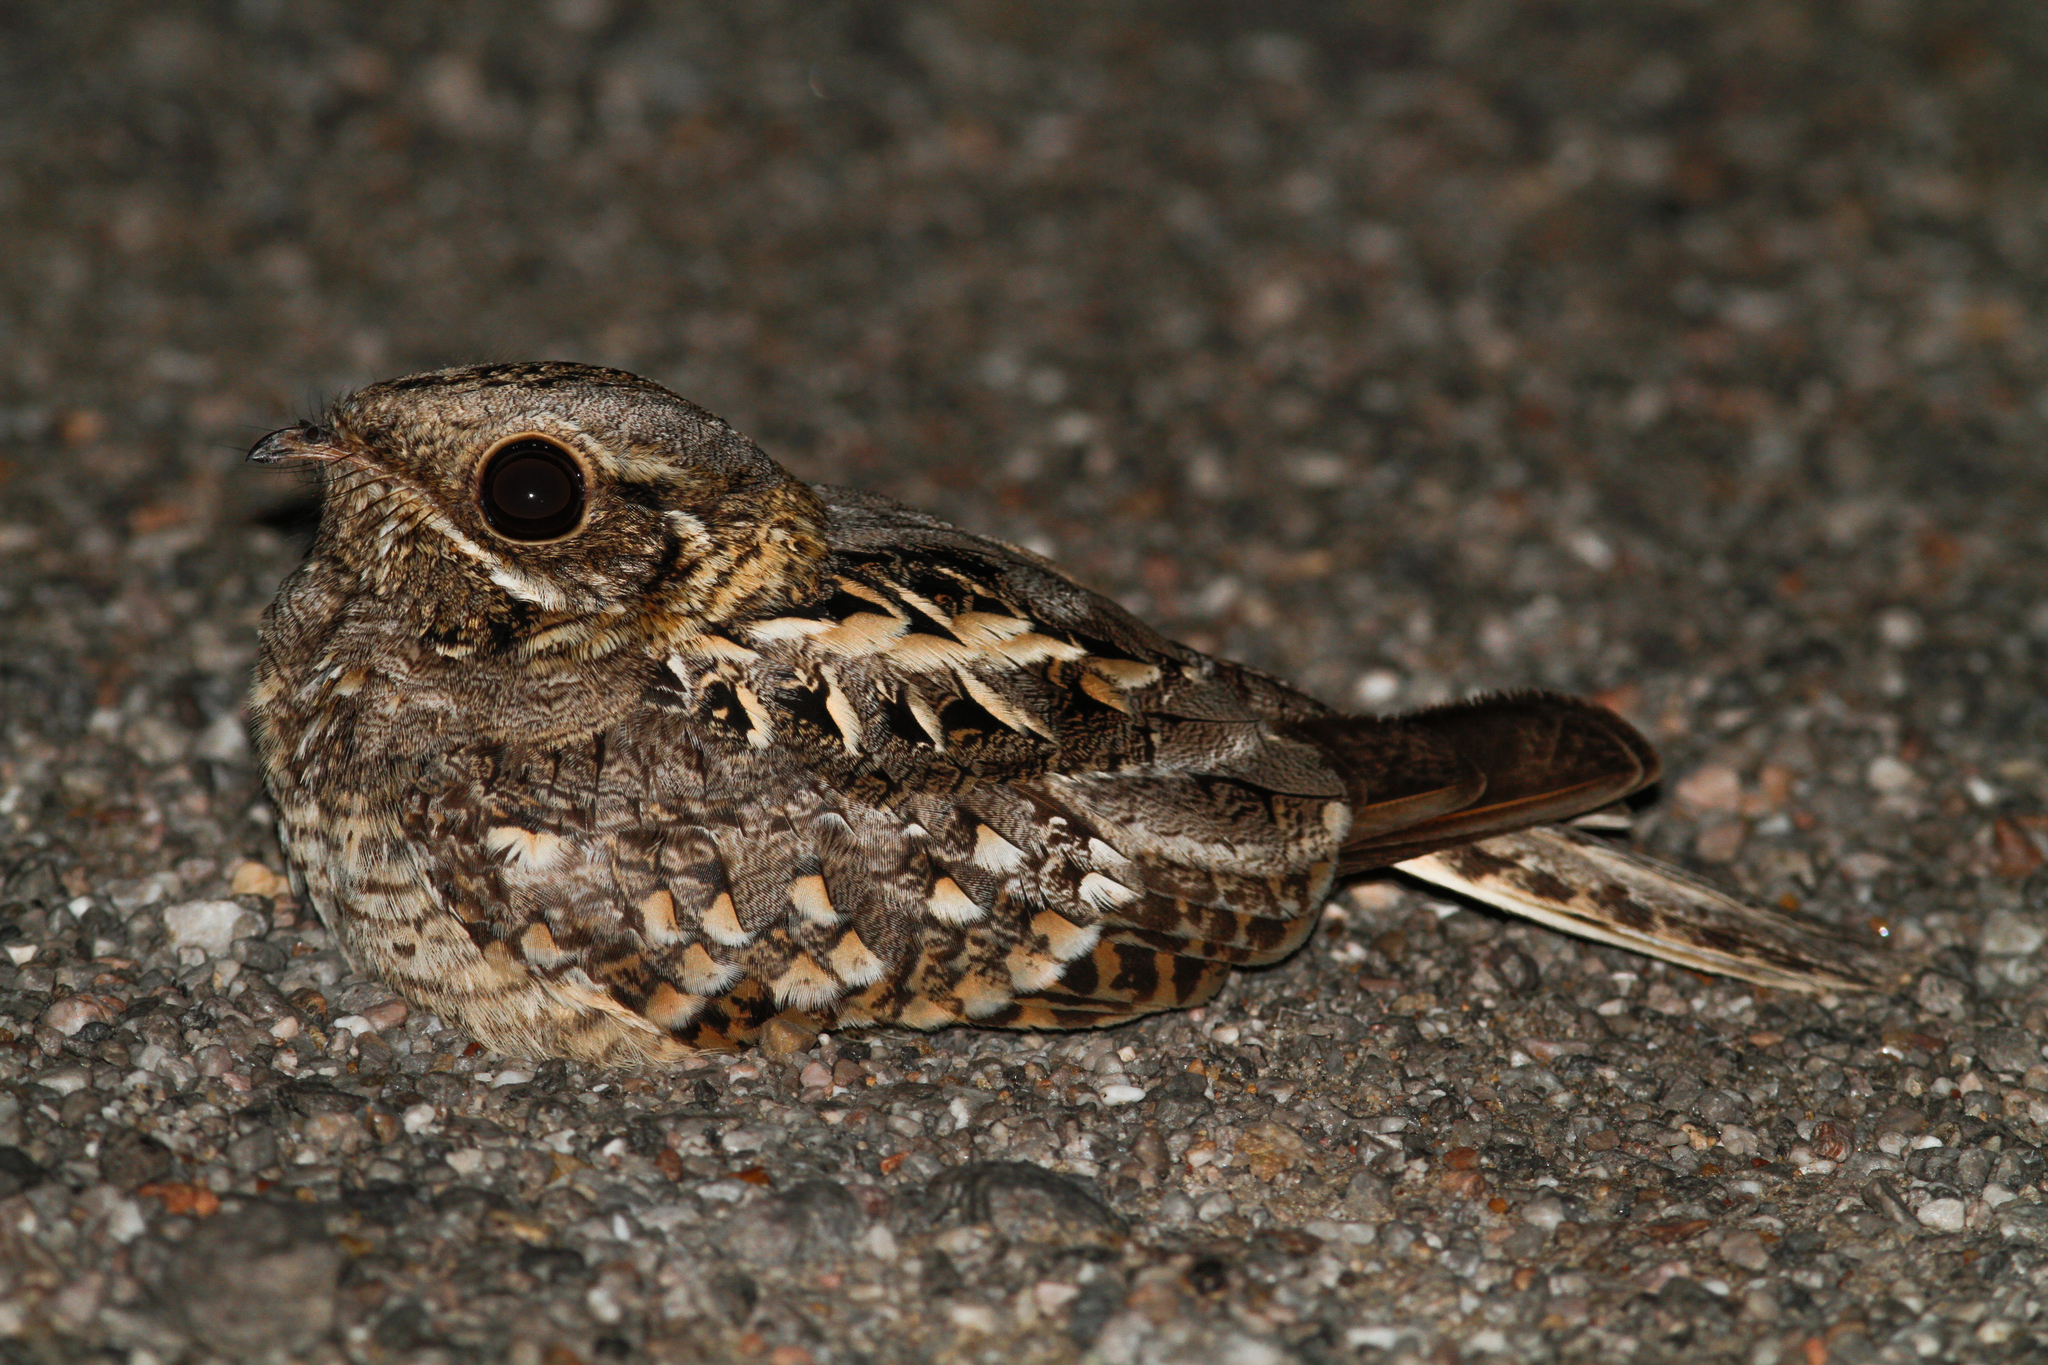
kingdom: Animalia
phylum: Chordata
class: Aves
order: Caprimulgiformes
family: Caprimulgidae
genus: Caprimulgus
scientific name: Caprimulgus asiaticus
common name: Indian nightjar
